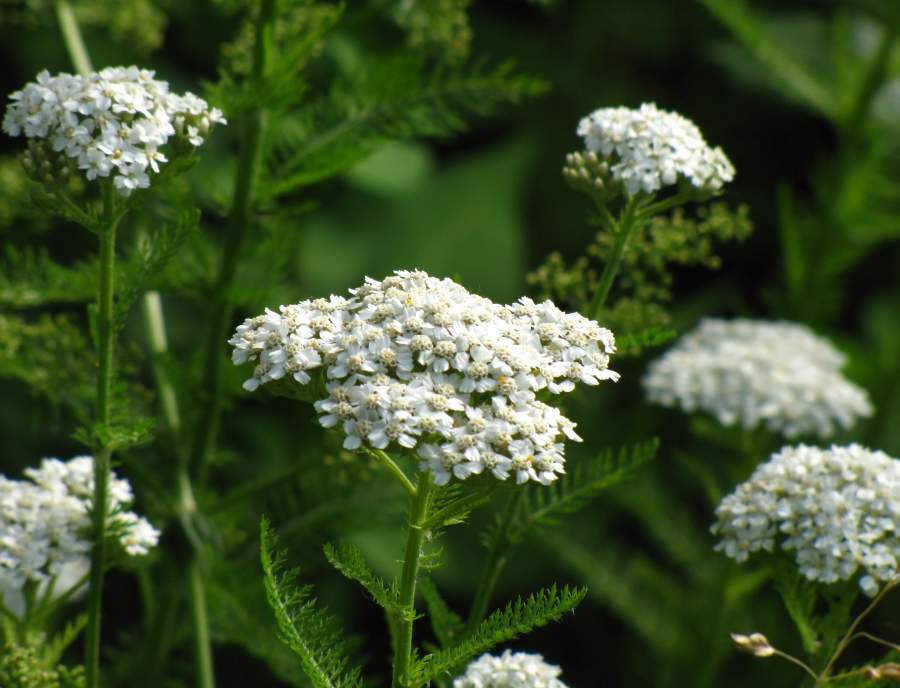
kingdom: Plantae
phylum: Tracheophyta
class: Magnoliopsida
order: Asterales
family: Asteraceae
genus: Achillea
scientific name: Achillea millefolium
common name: Yarrow
